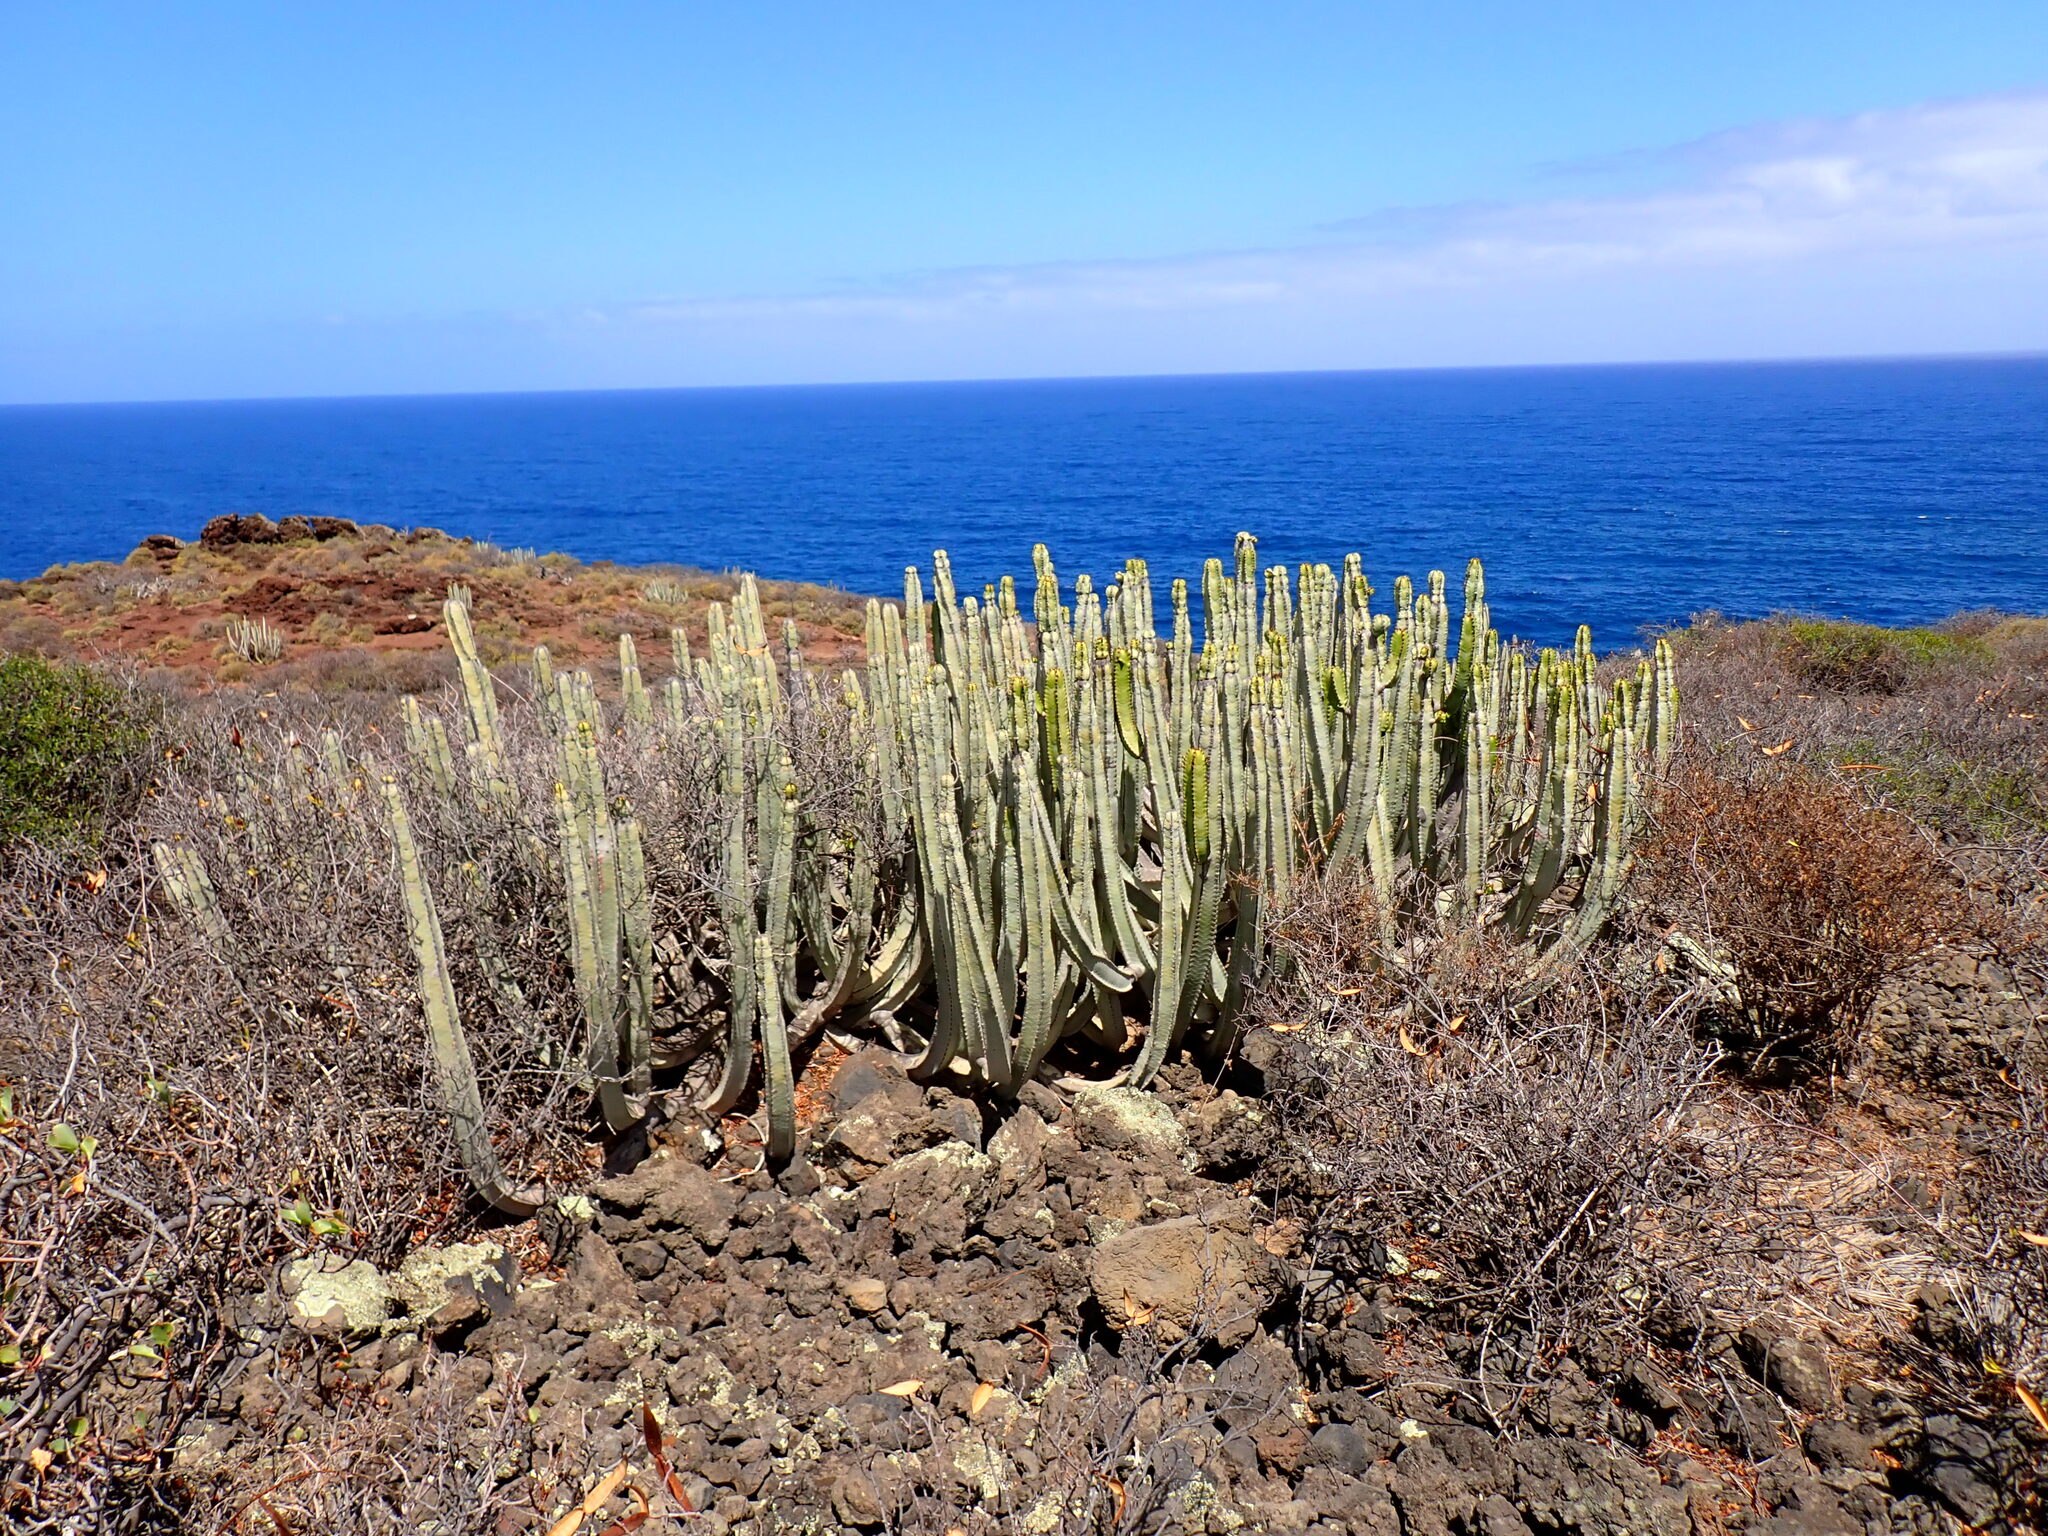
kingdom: Plantae
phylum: Tracheophyta
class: Magnoliopsida
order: Malpighiales
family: Euphorbiaceae
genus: Euphorbia
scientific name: Euphorbia canariensis
